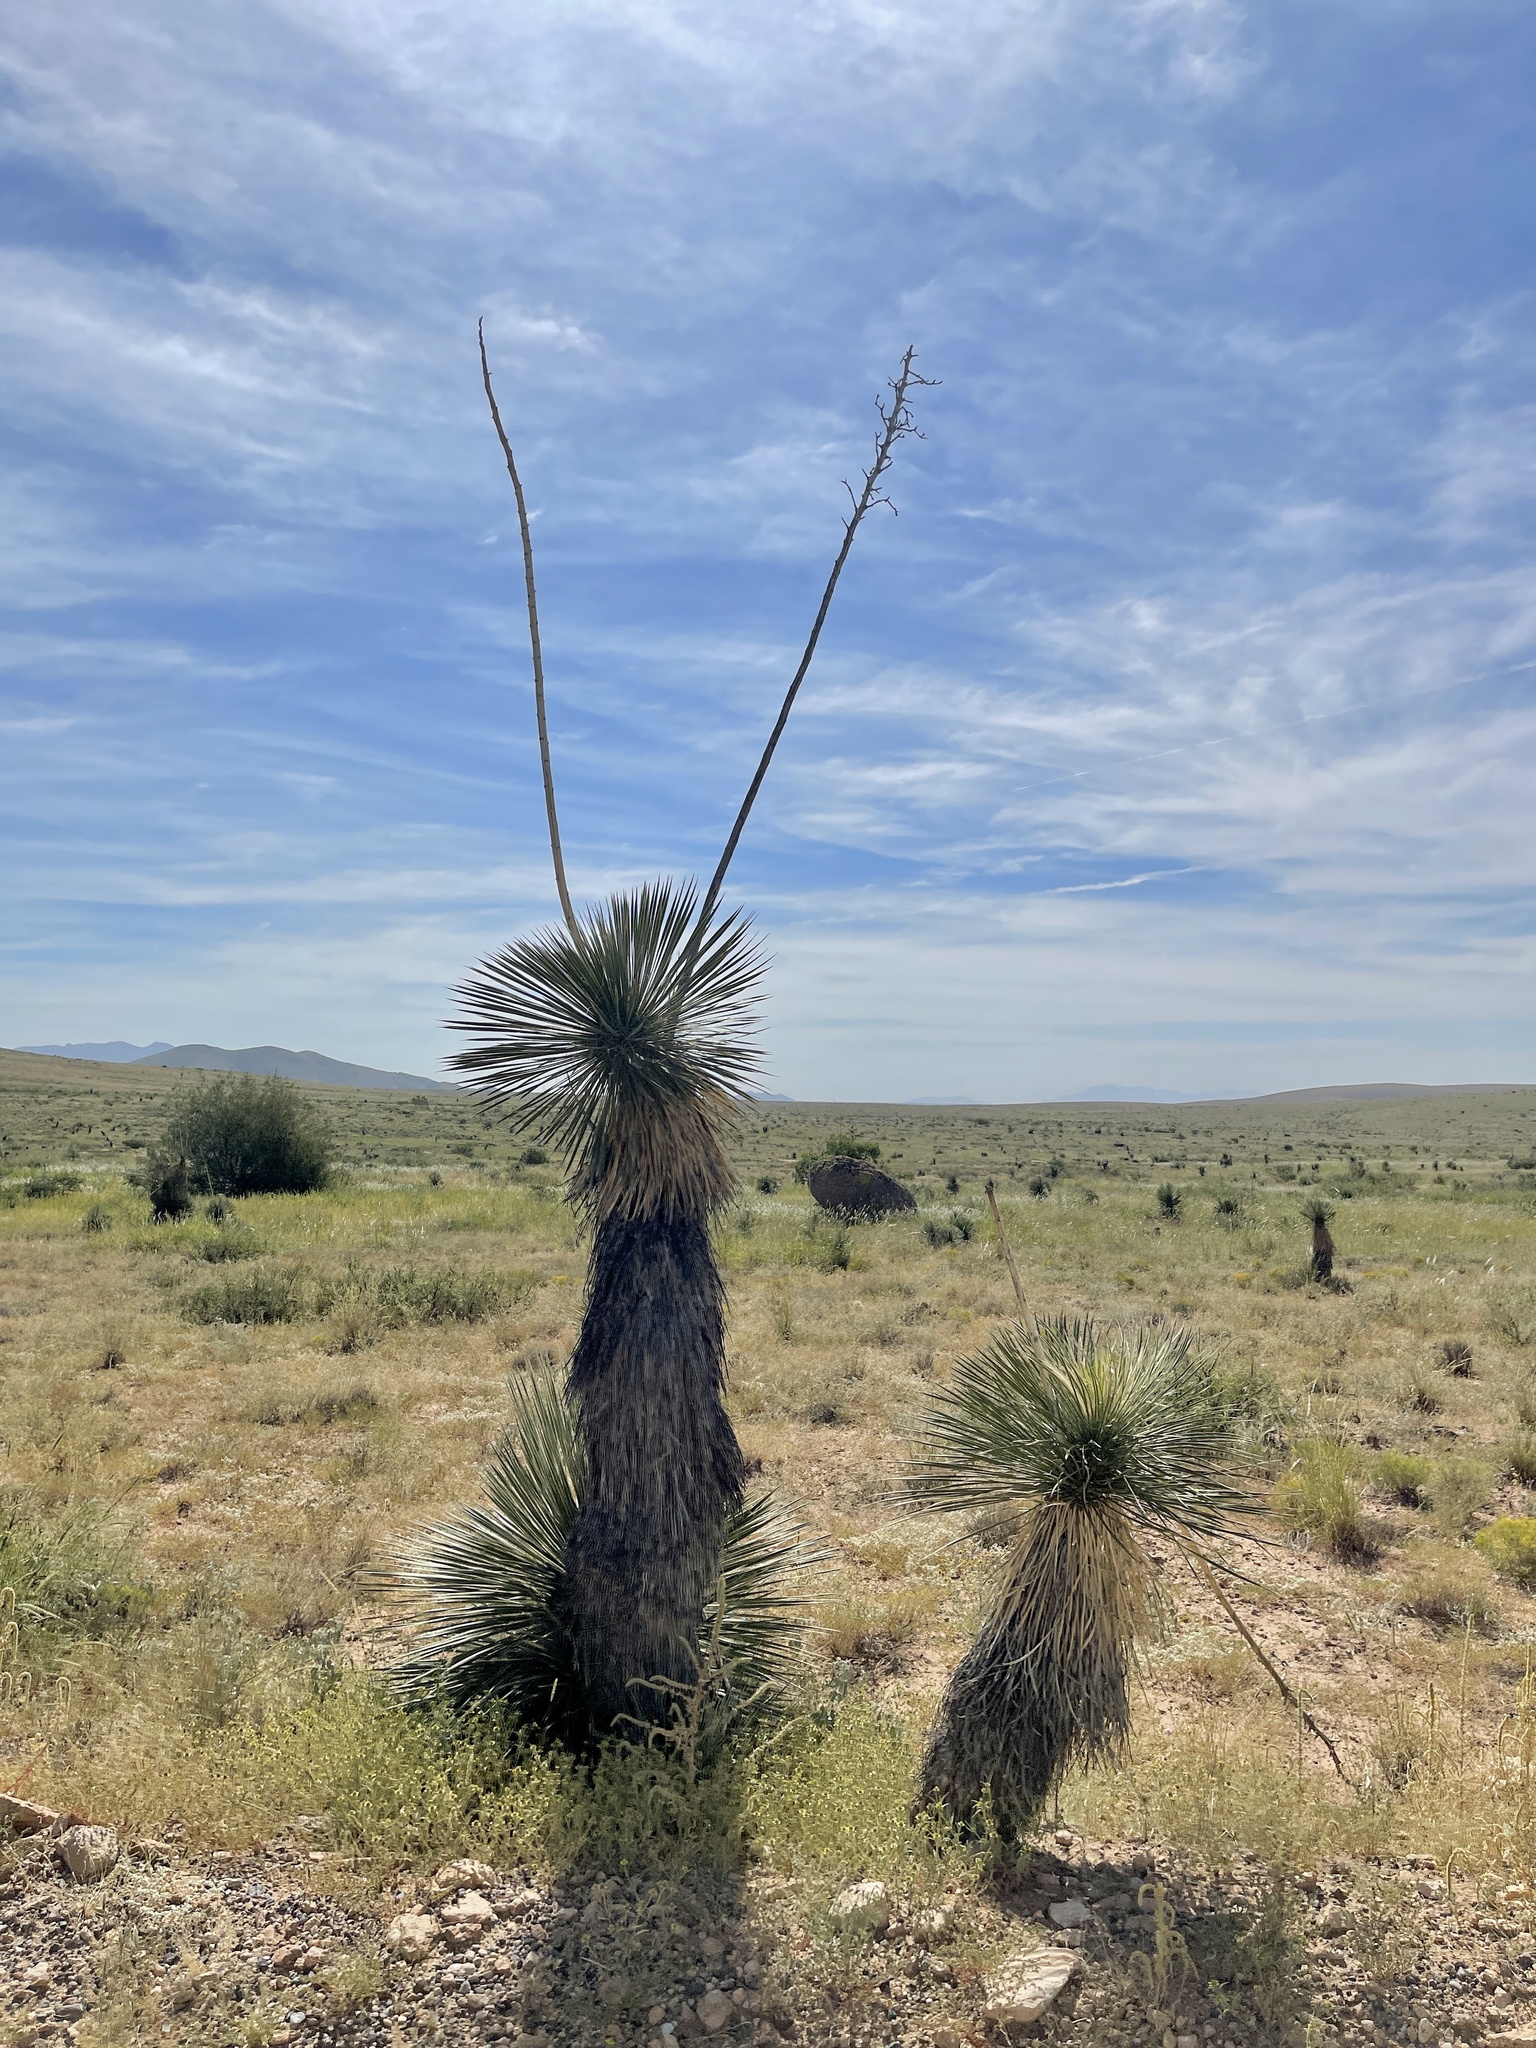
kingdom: Plantae
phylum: Tracheophyta
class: Liliopsida
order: Asparagales
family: Asparagaceae
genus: Yucca
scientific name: Yucca elata
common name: Palmella
